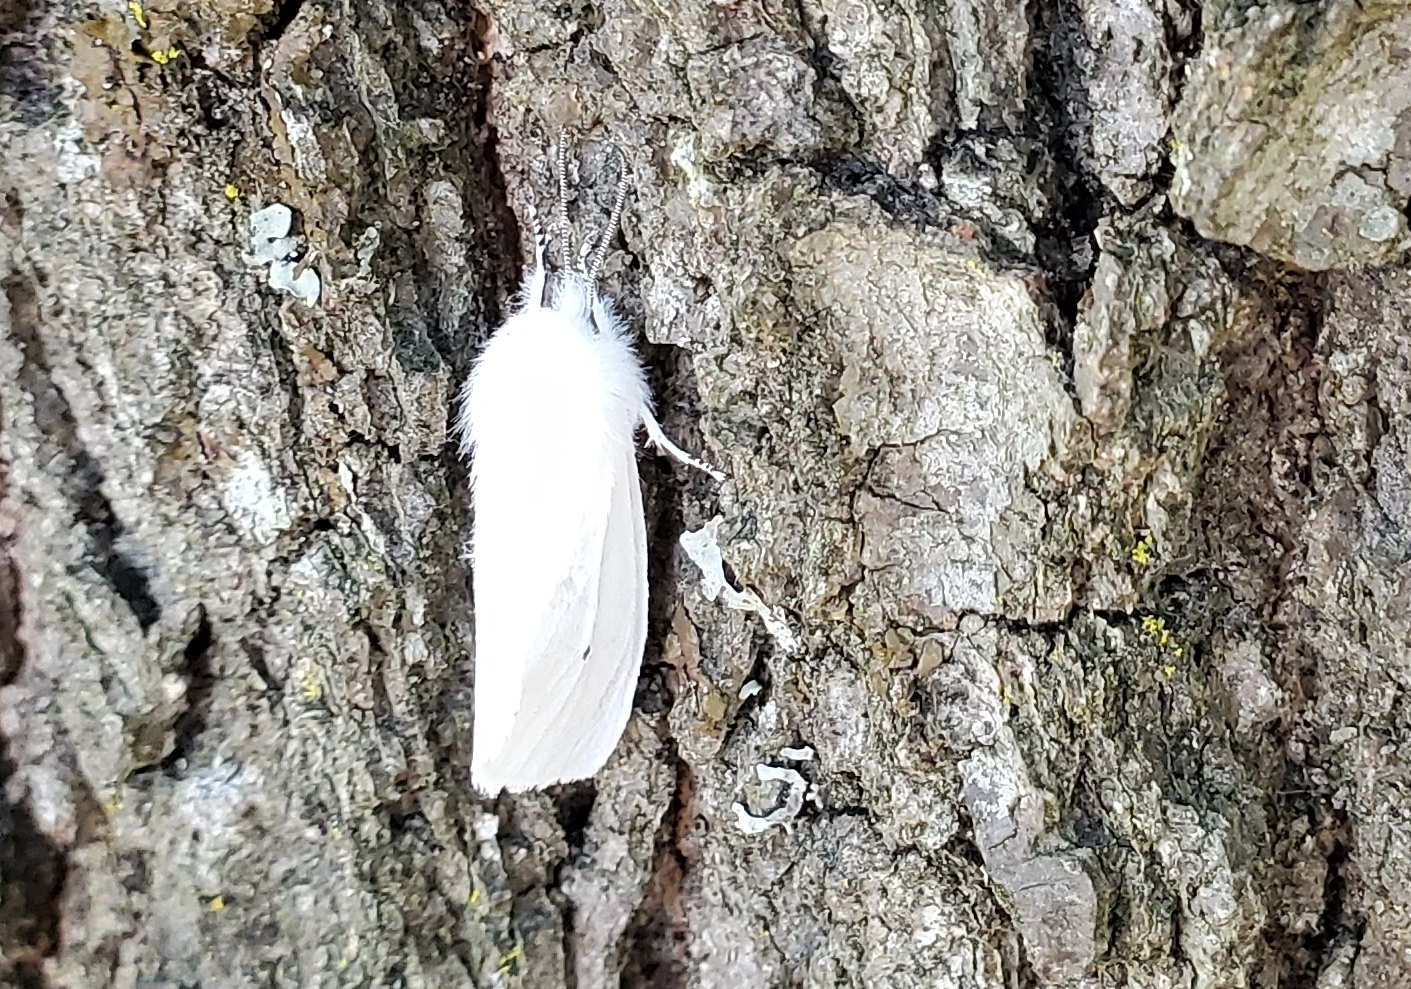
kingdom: Animalia
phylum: Arthropoda
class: Insecta
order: Lepidoptera
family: Erebidae
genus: Spilosoma
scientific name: Spilosoma virginica
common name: Virginia tiger moth
